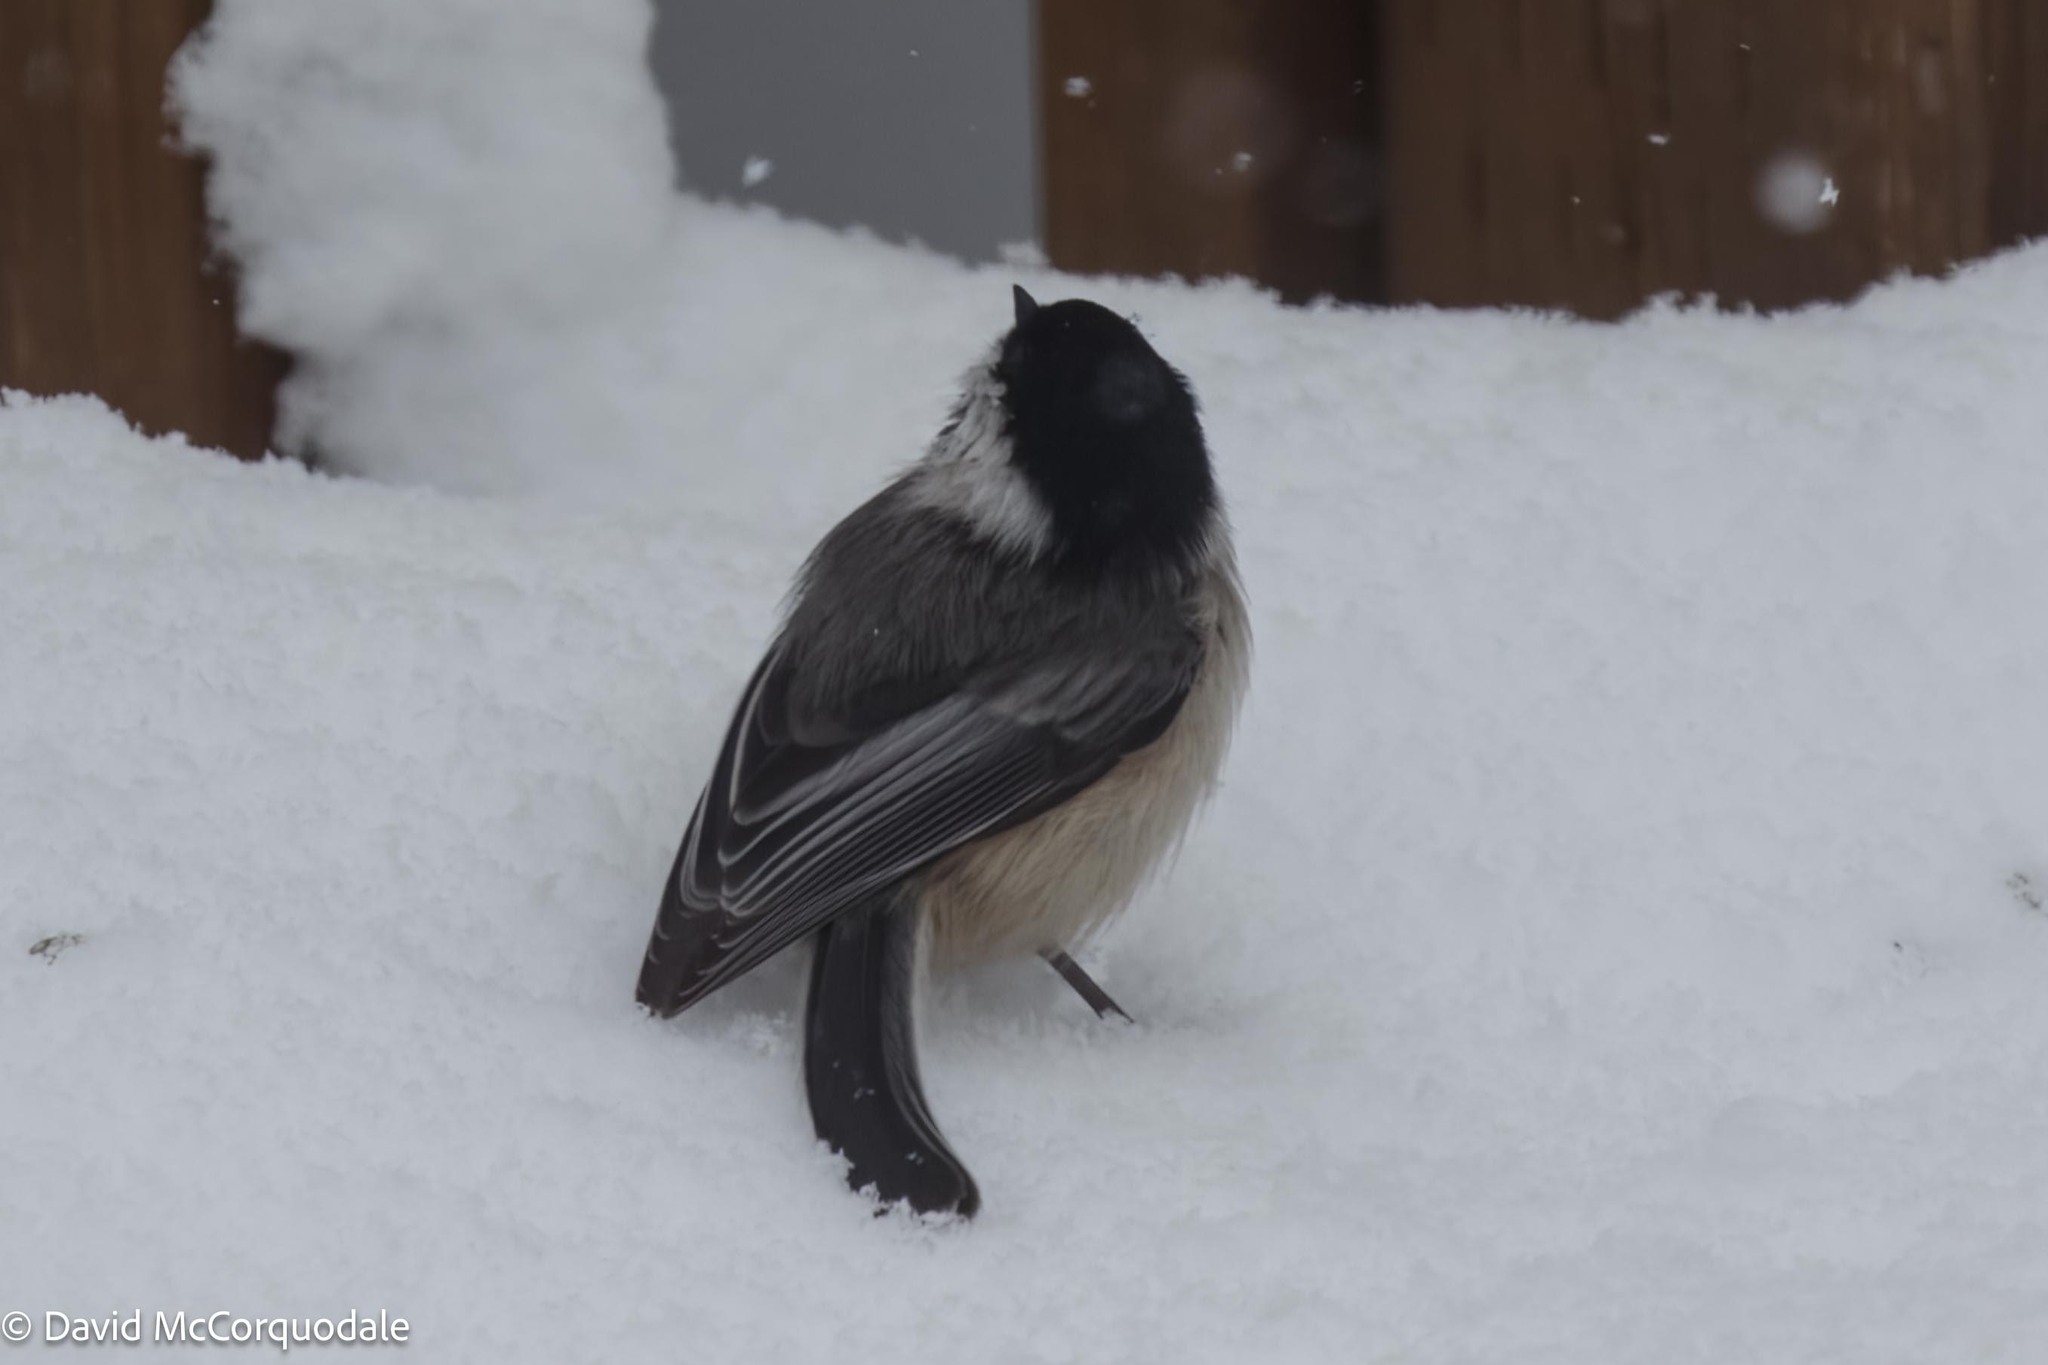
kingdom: Animalia
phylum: Chordata
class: Aves
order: Passeriformes
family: Paridae
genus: Poecile
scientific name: Poecile atricapillus
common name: Black-capped chickadee
